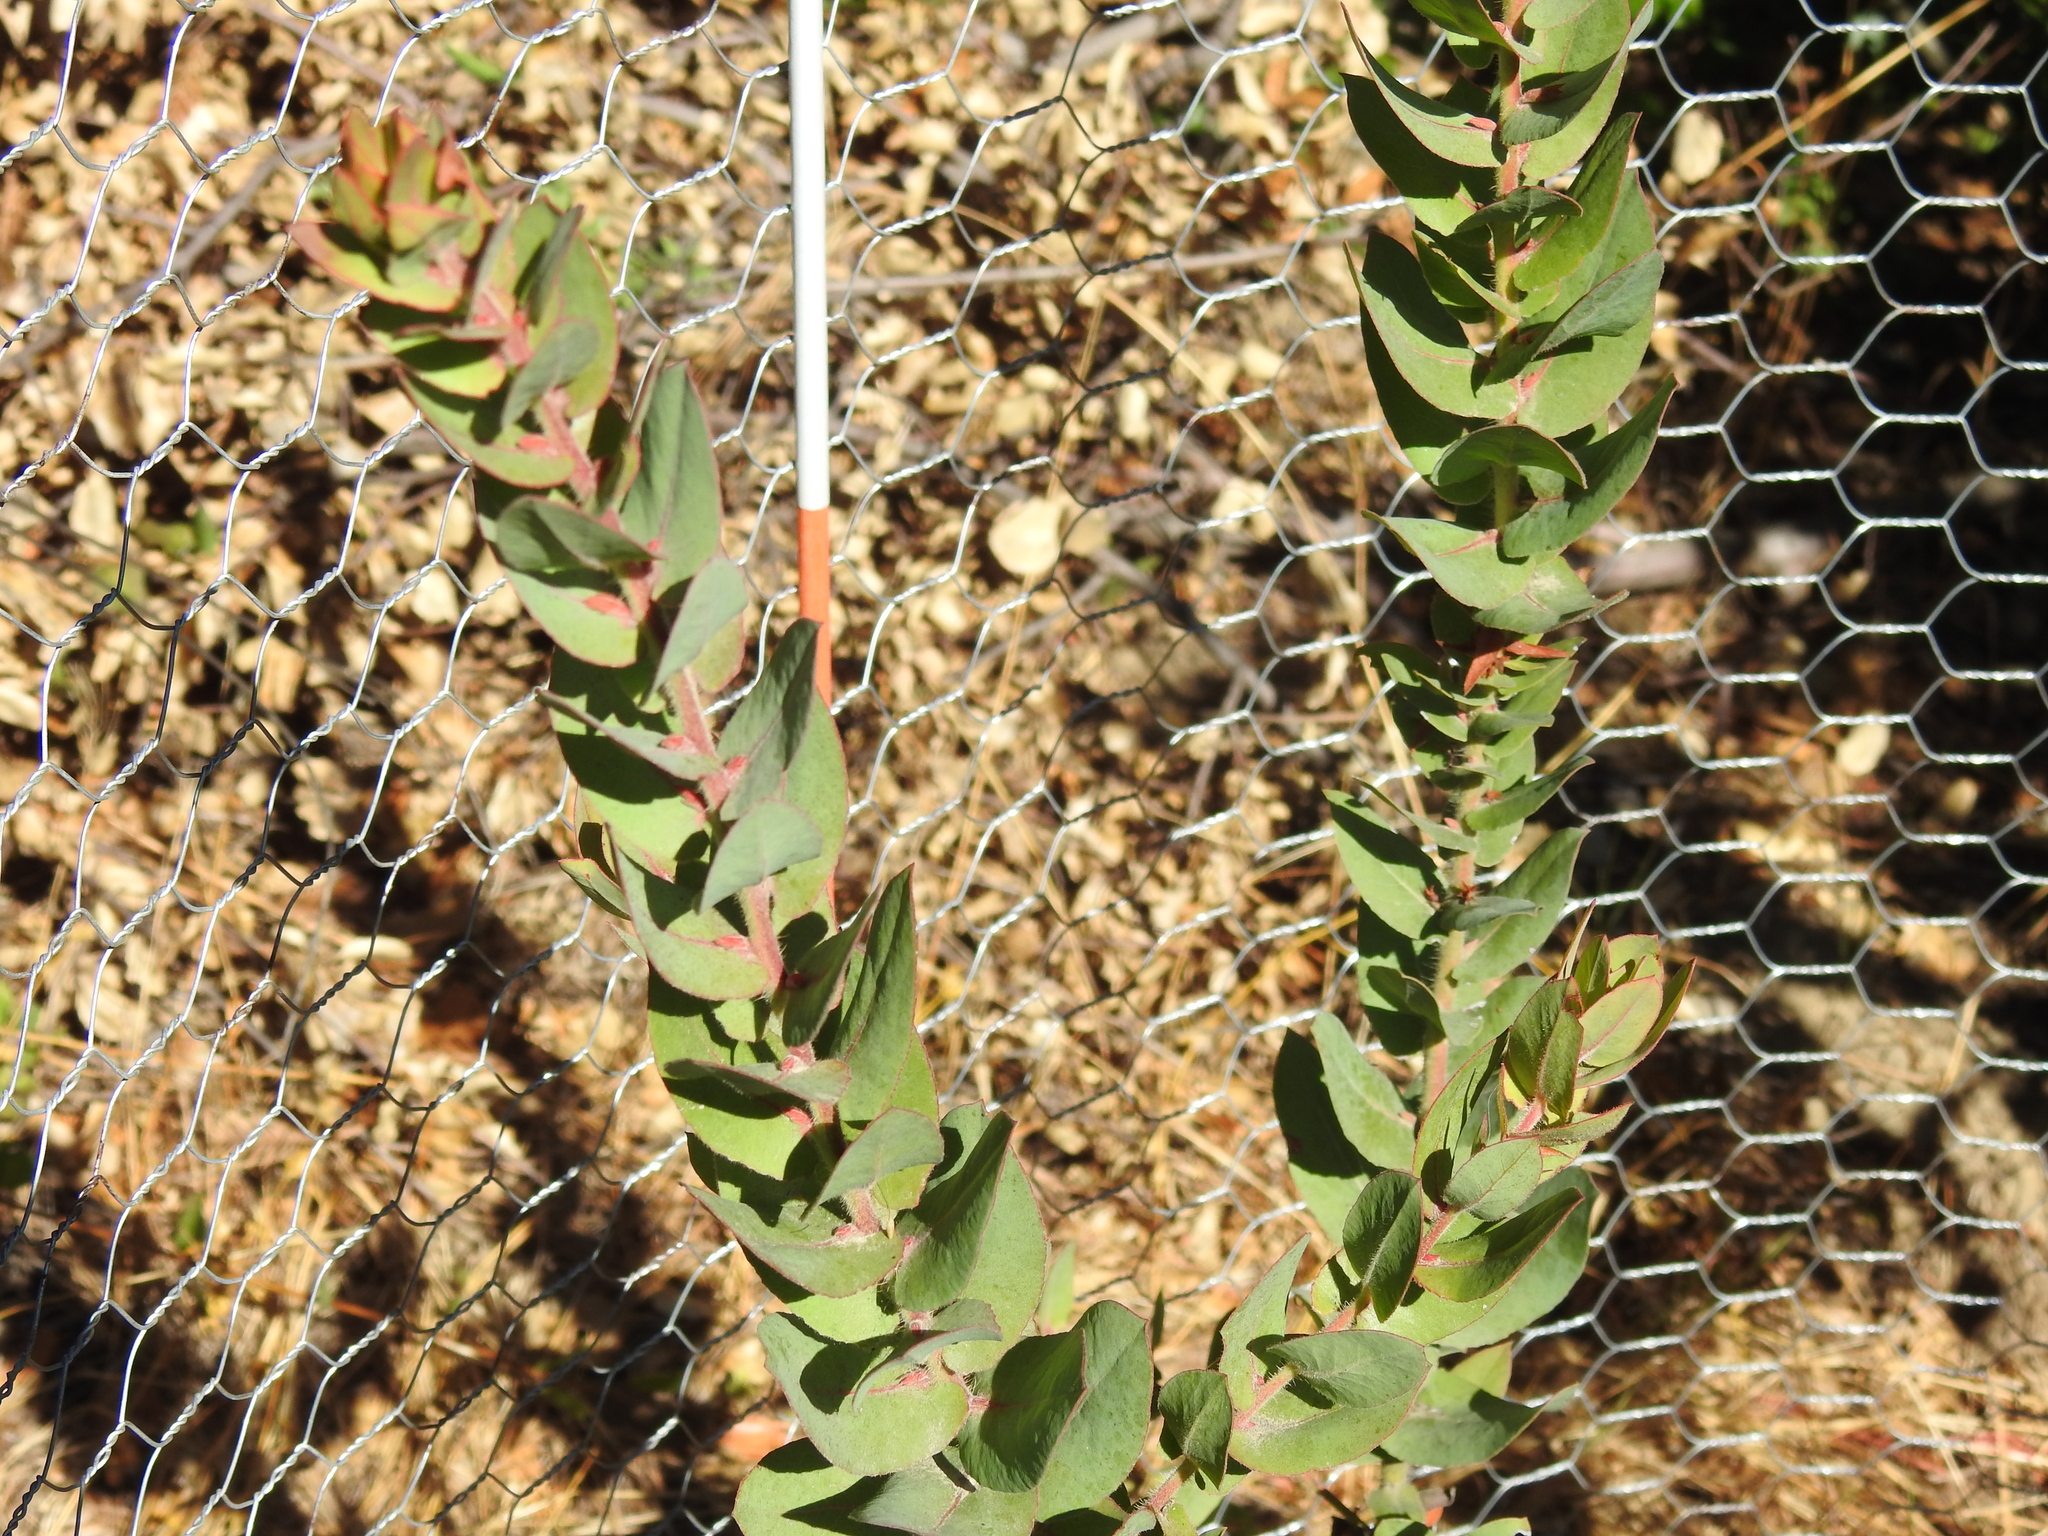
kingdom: Plantae
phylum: Tracheophyta
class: Magnoliopsida
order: Ericales
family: Ericaceae
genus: Arctostaphylos
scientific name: Arctostaphylos pallida
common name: Pallid manzanita
